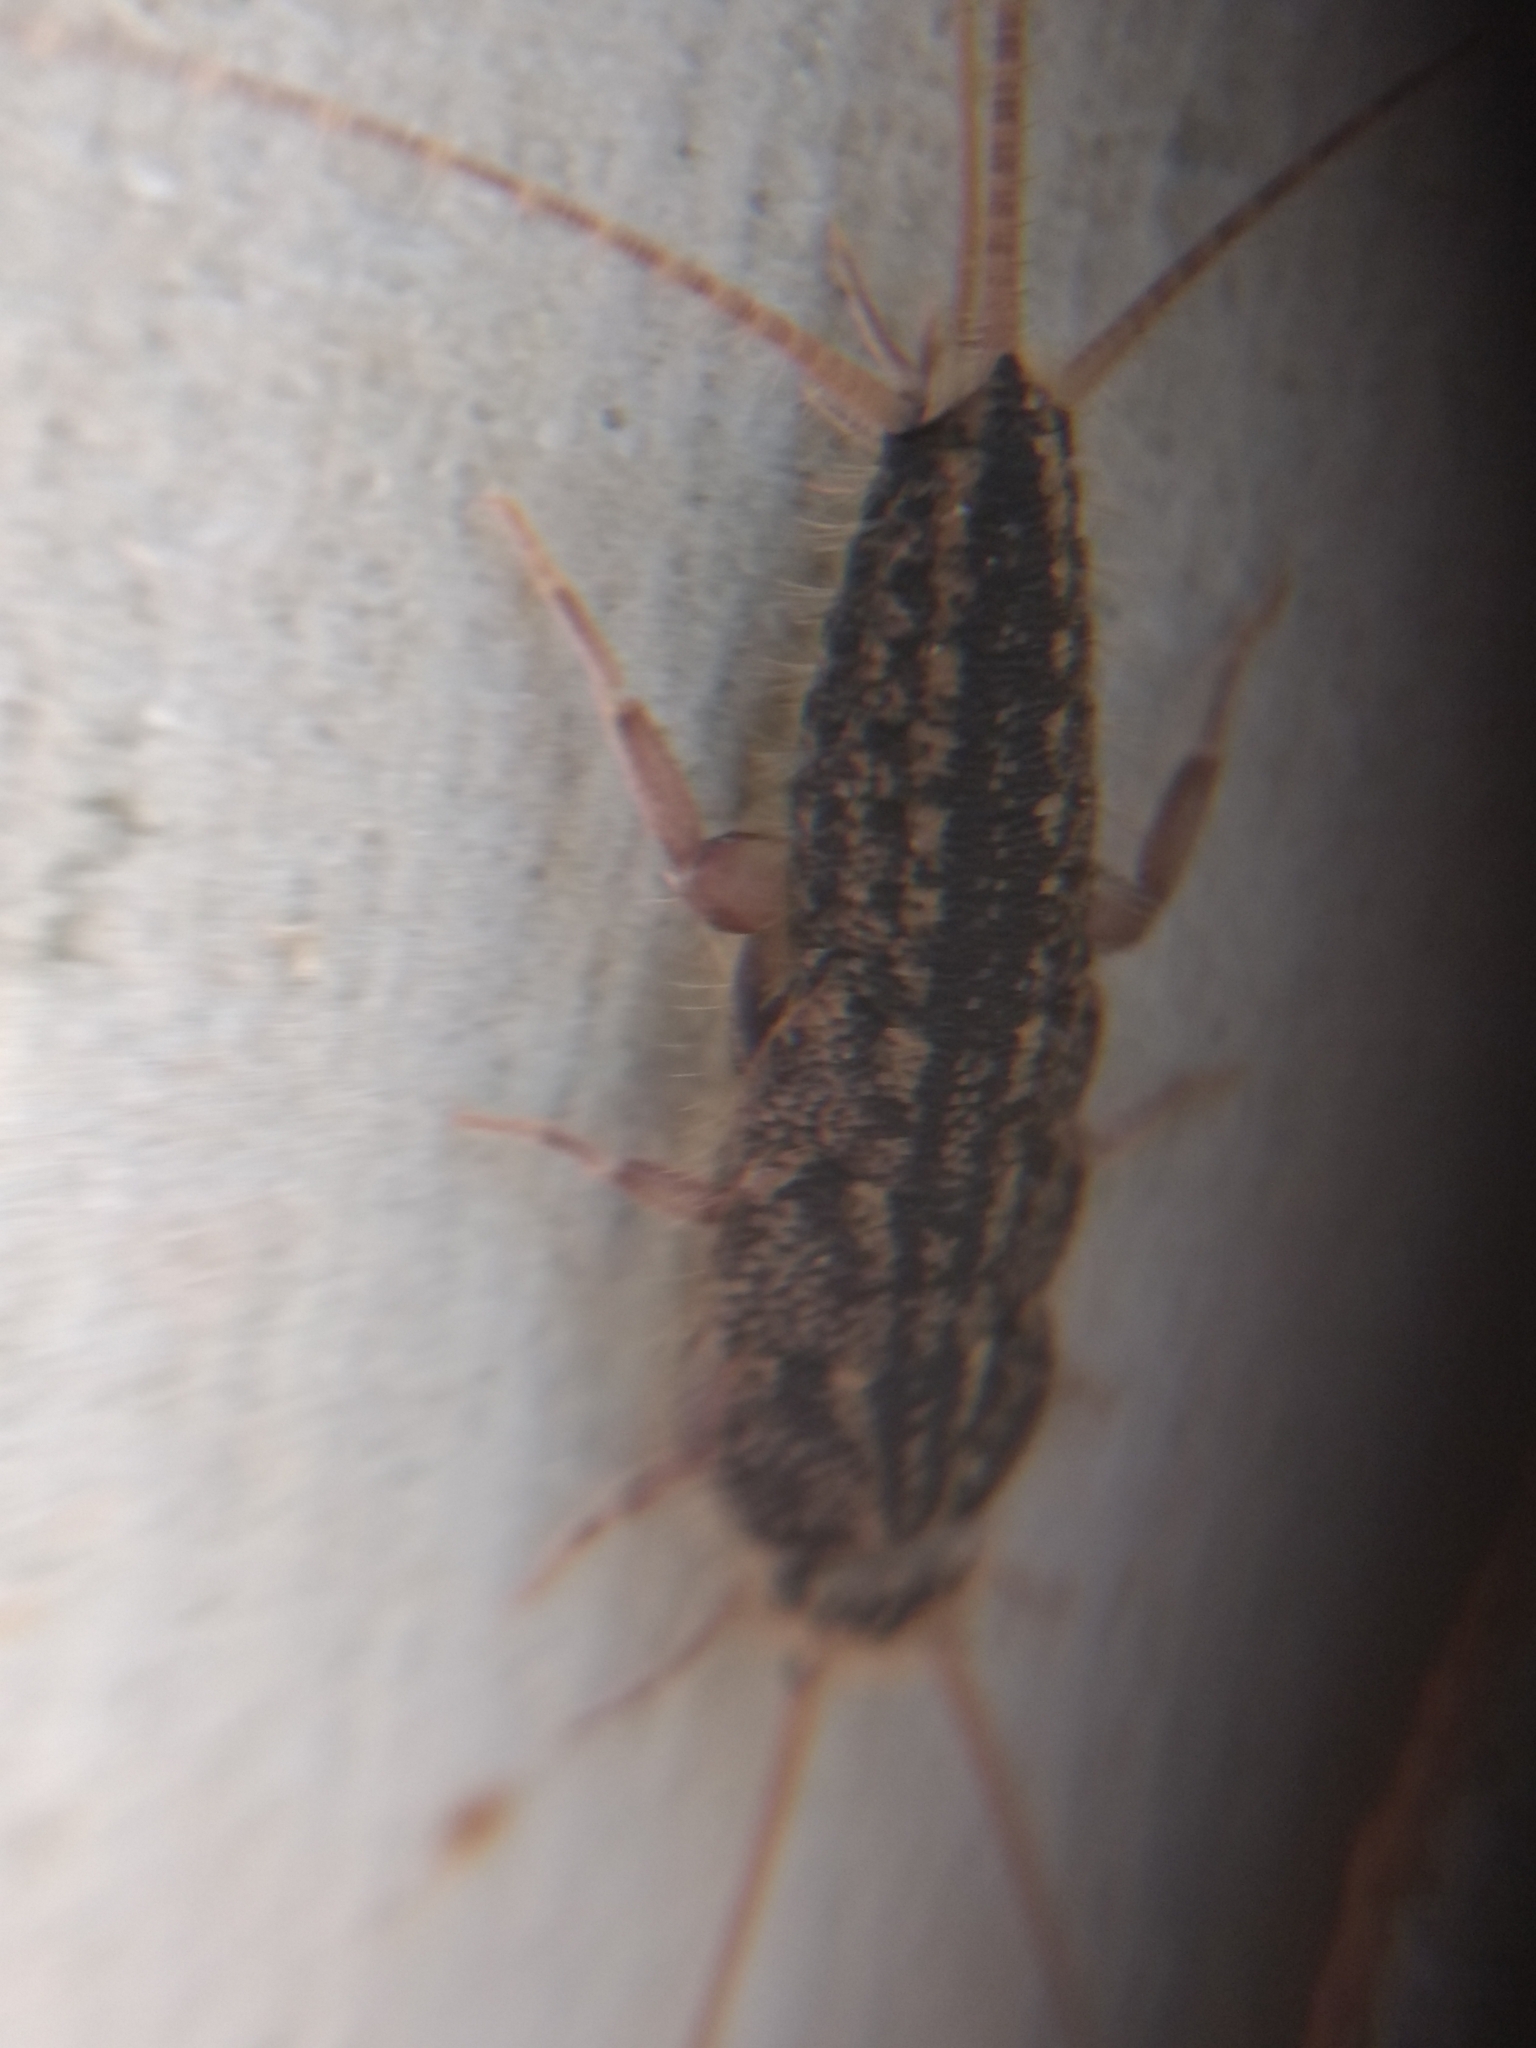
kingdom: Animalia
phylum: Arthropoda
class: Insecta
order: Zygentoma
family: Lepismatidae
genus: Ctenolepisma
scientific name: Ctenolepisma lineata
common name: Four-lined silverfish
